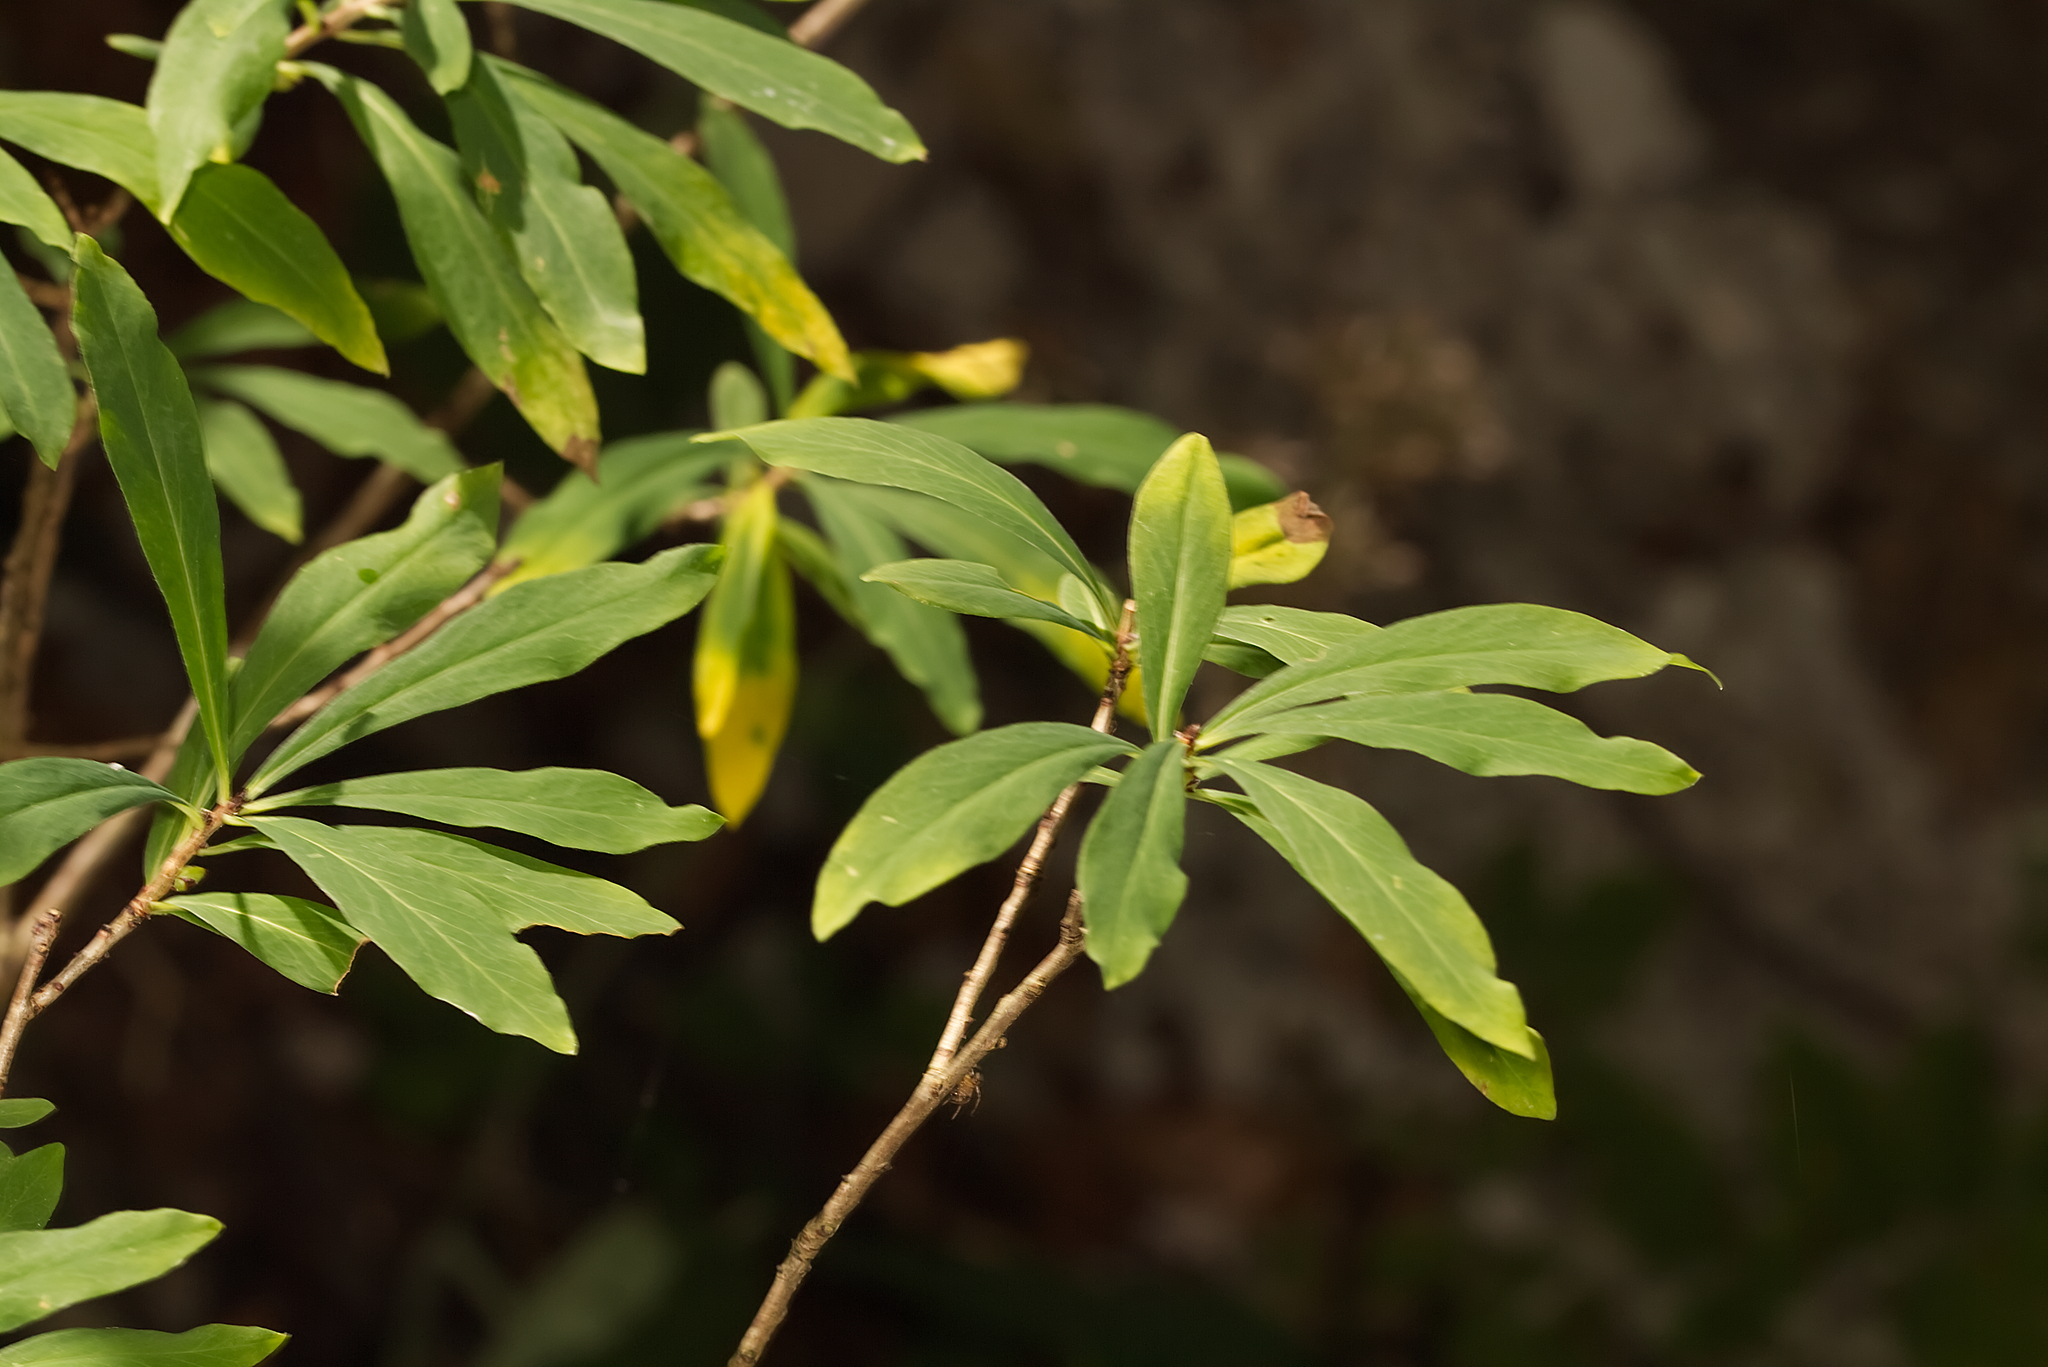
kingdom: Plantae
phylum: Tracheophyta
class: Magnoliopsida
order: Malvales
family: Thymelaeaceae
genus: Daphne
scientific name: Daphne mezereum
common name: Mezereon
